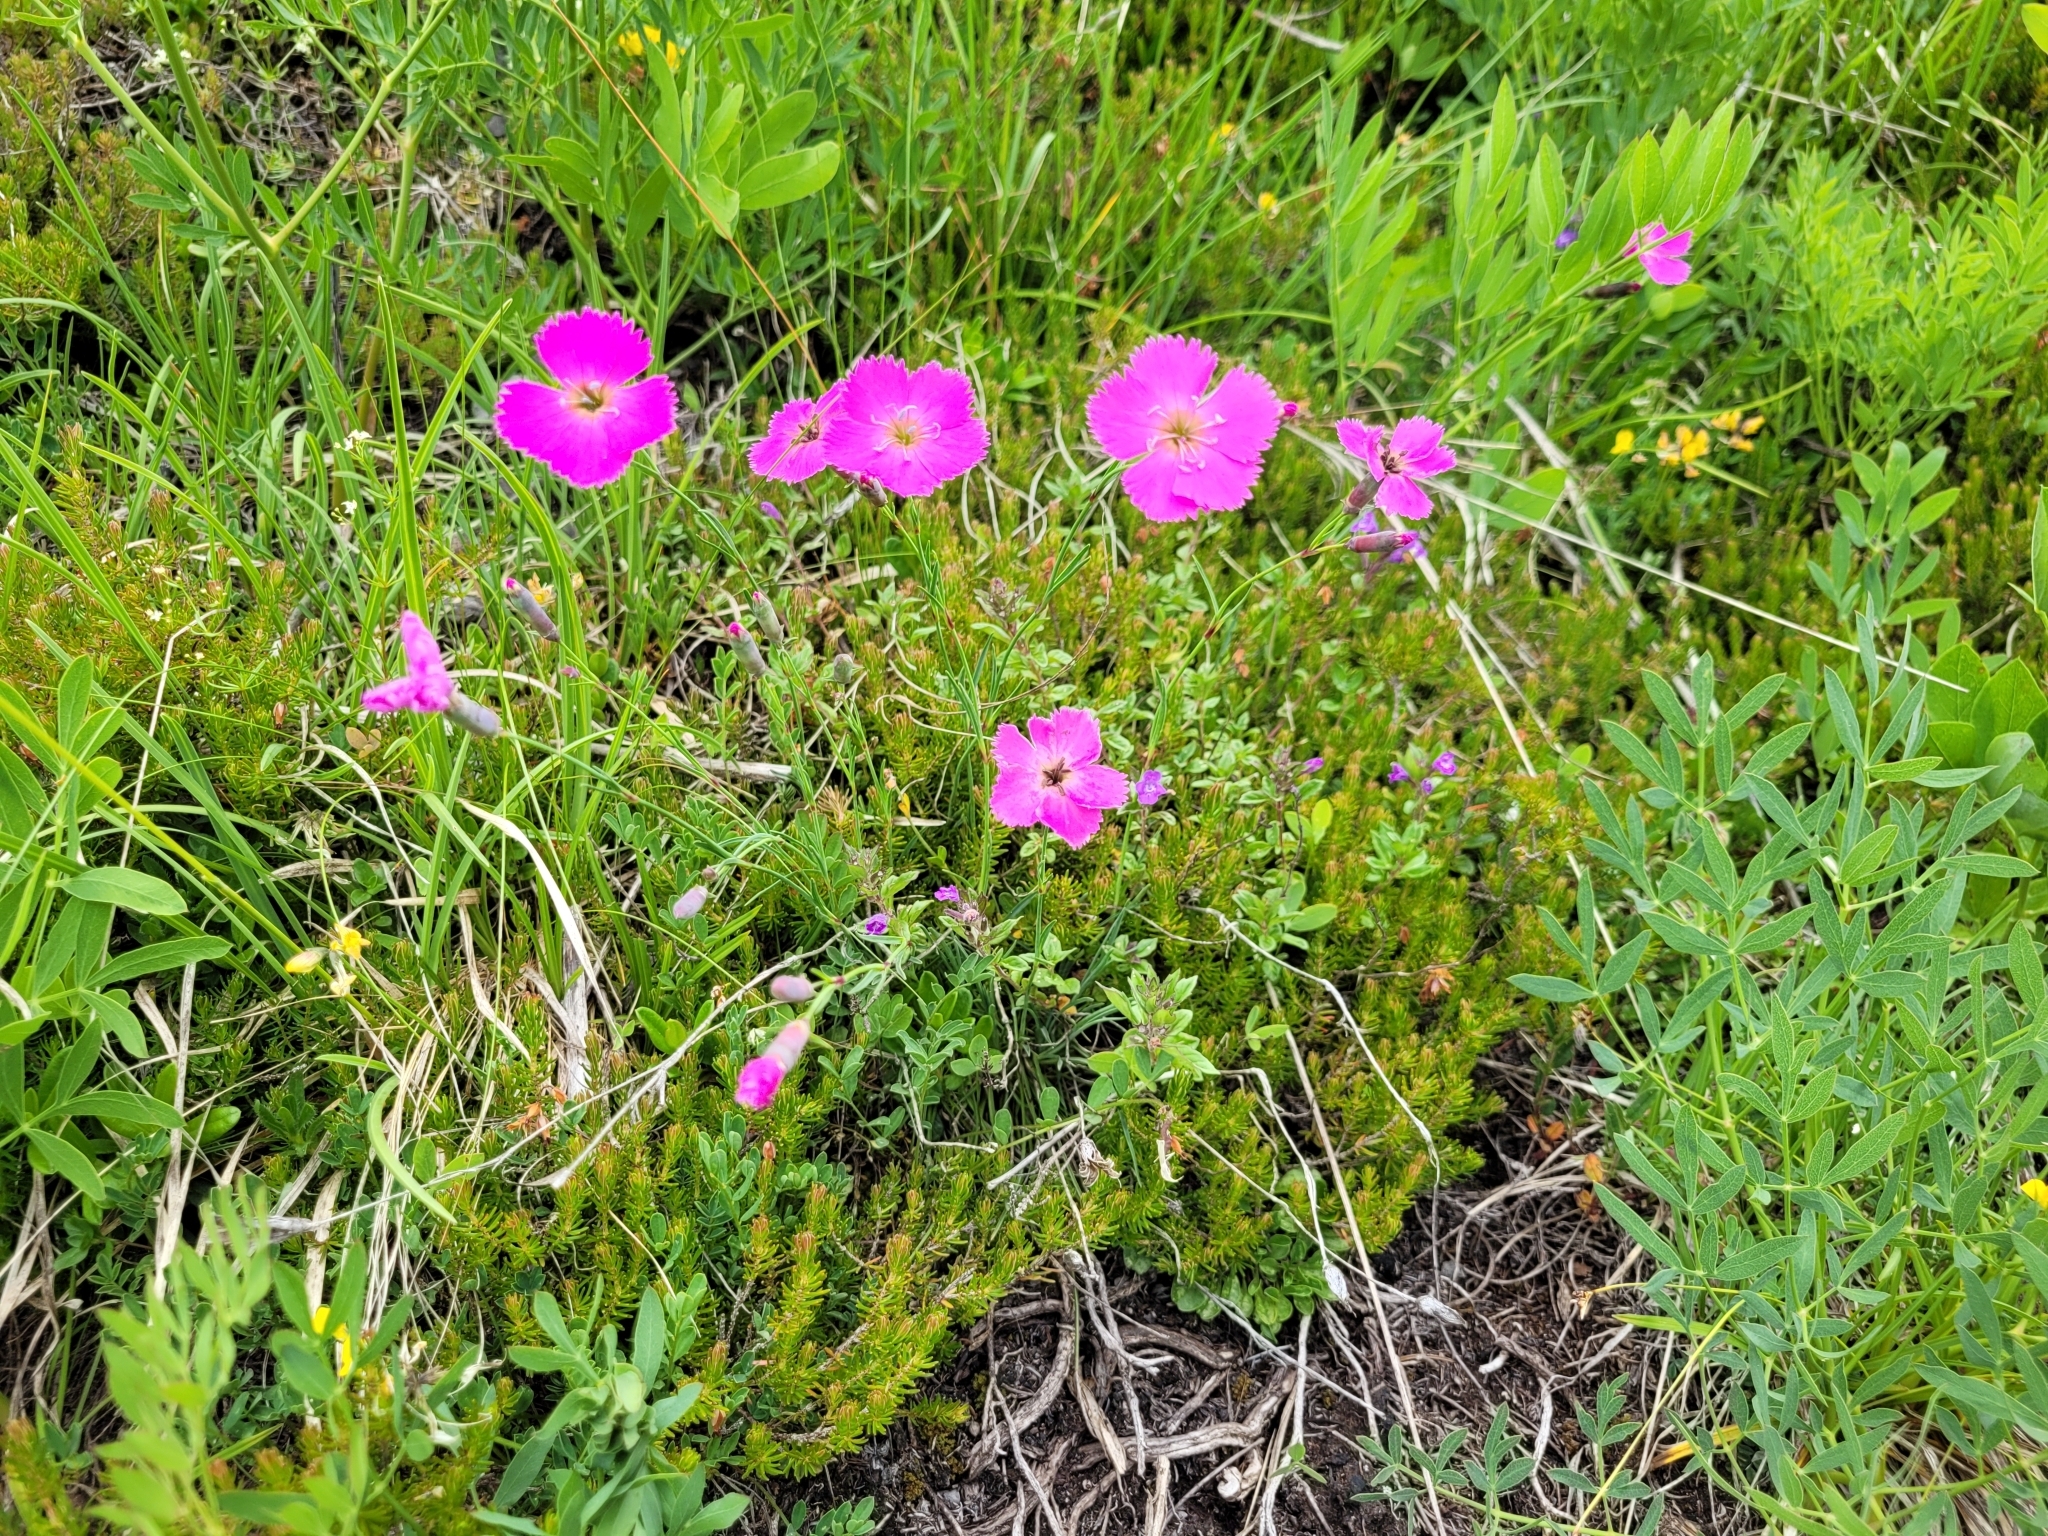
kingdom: Plantae
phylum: Tracheophyta
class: Magnoliopsida
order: Caryophyllales
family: Caryophyllaceae
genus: Dianthus
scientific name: Dianthus sylvestris
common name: Wood pink
